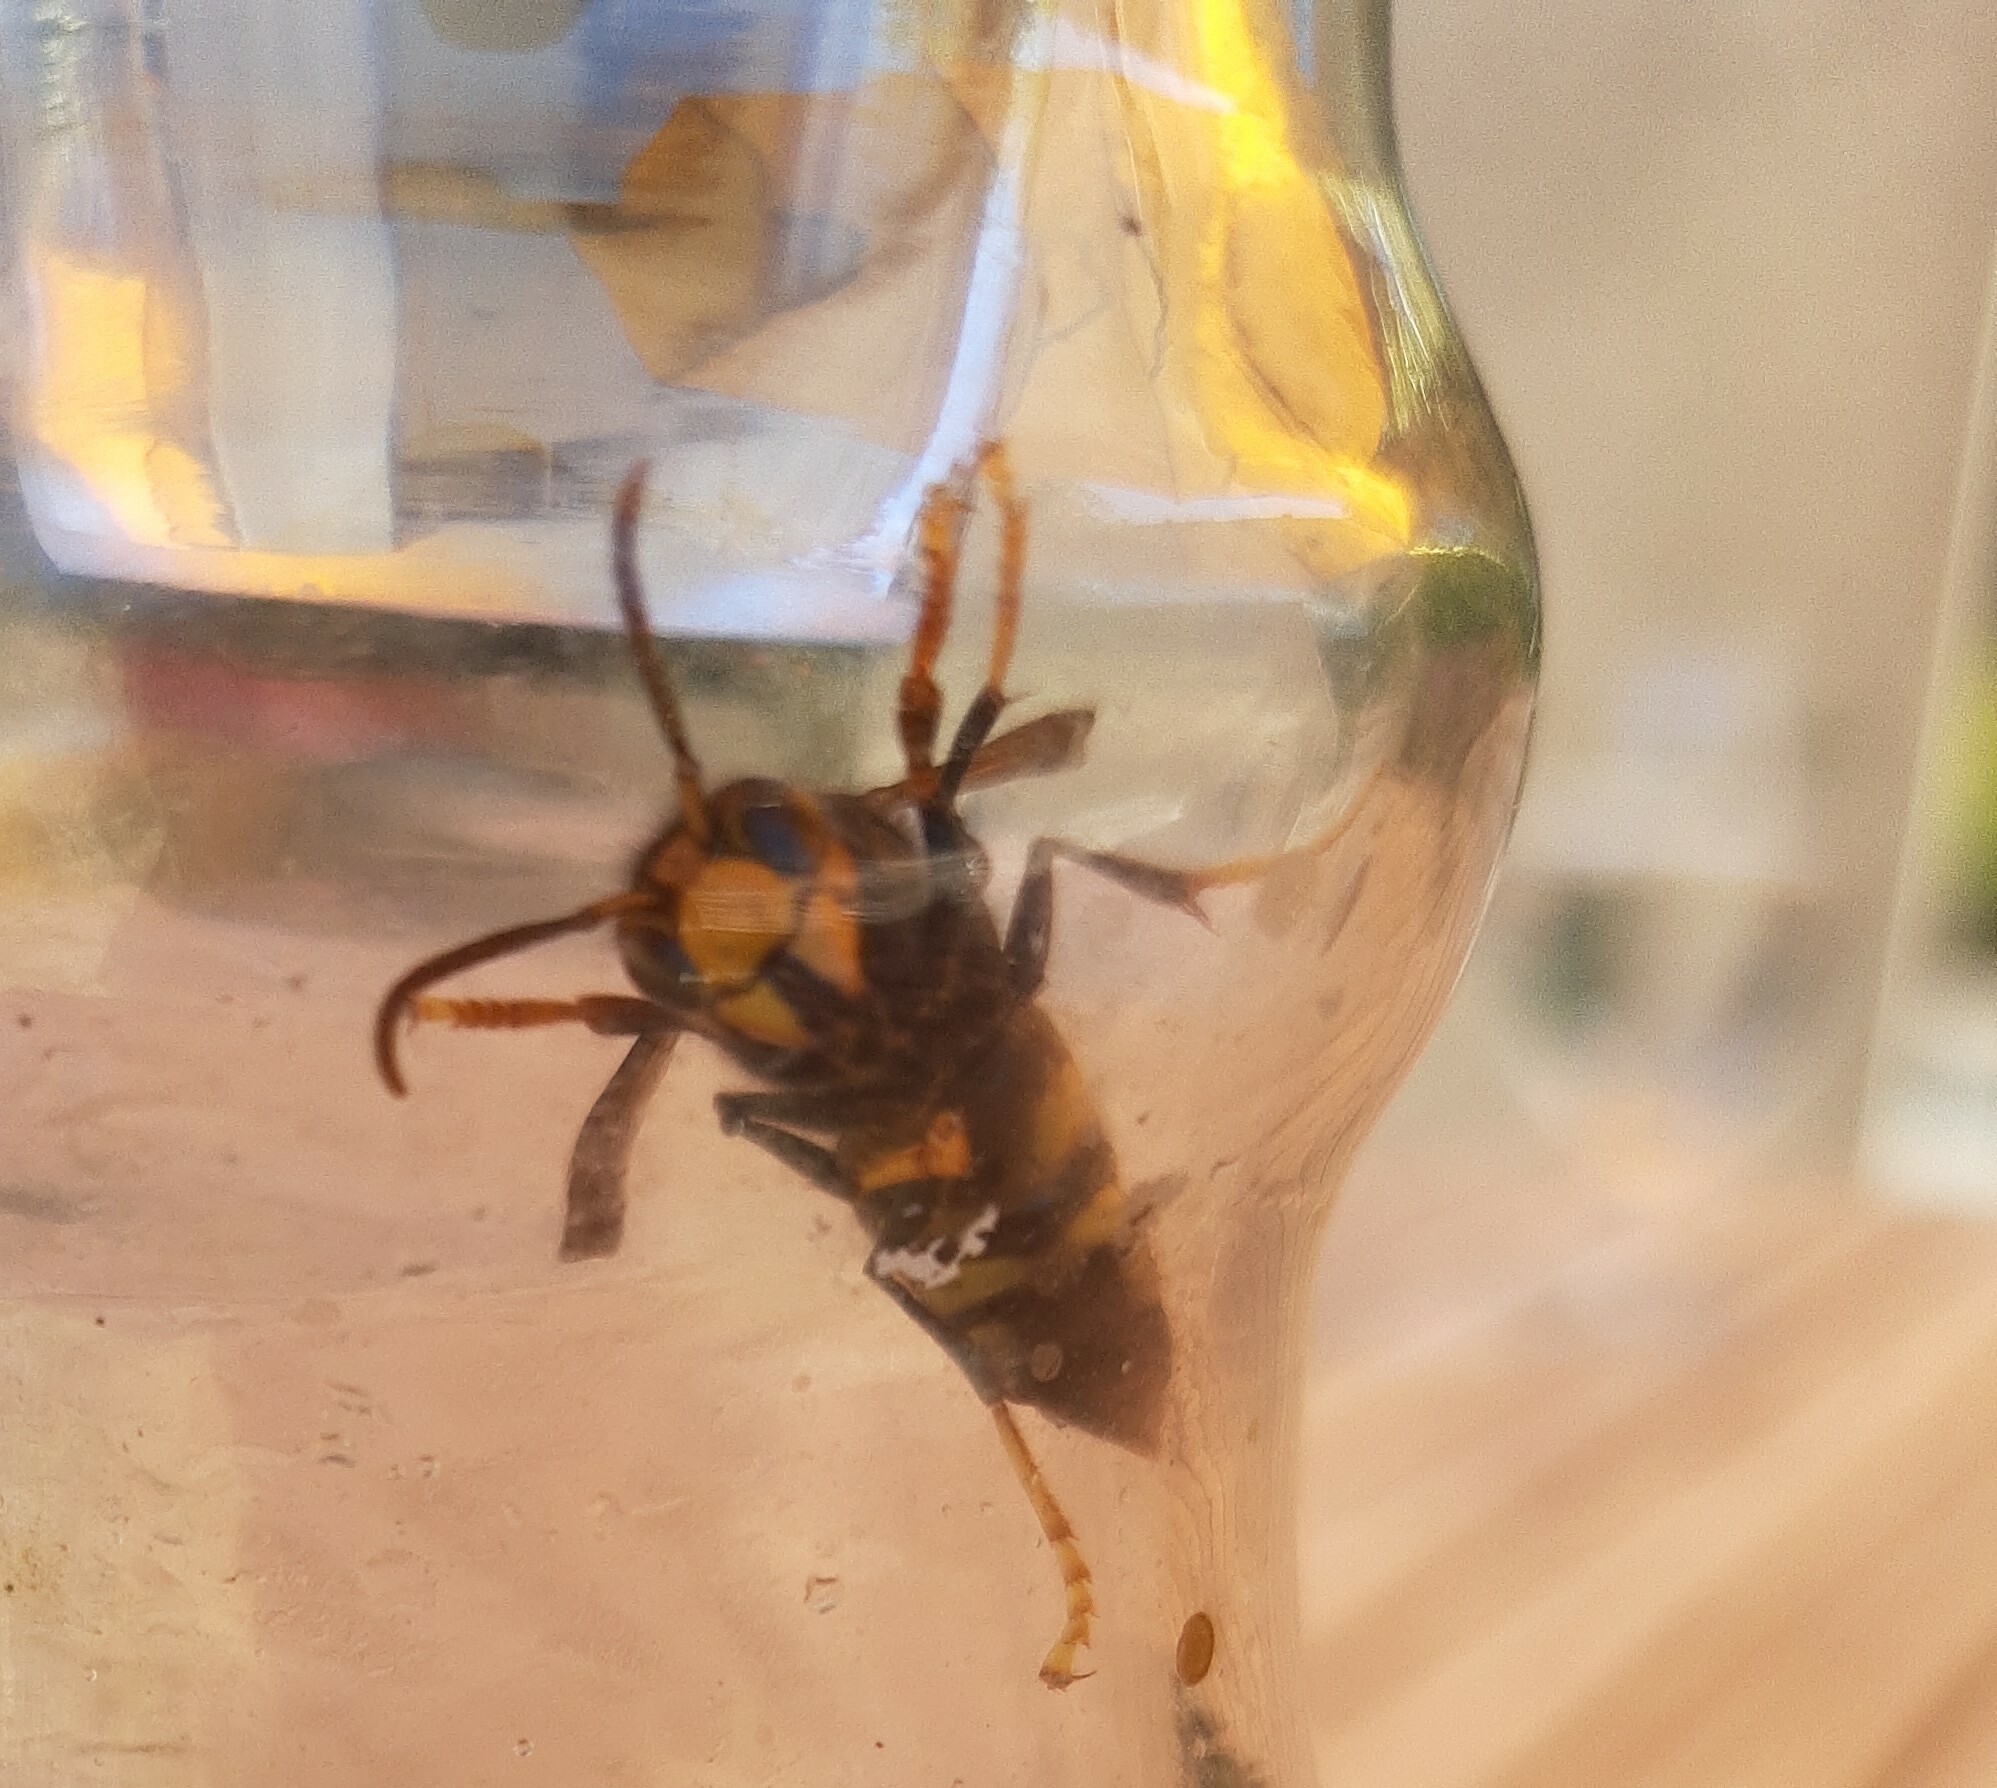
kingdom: Animalia
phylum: Arthropoda
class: Insecta
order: Hymenoptera
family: Vespidae
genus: Vespa
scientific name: Vespa velutina
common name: Asian hornet
